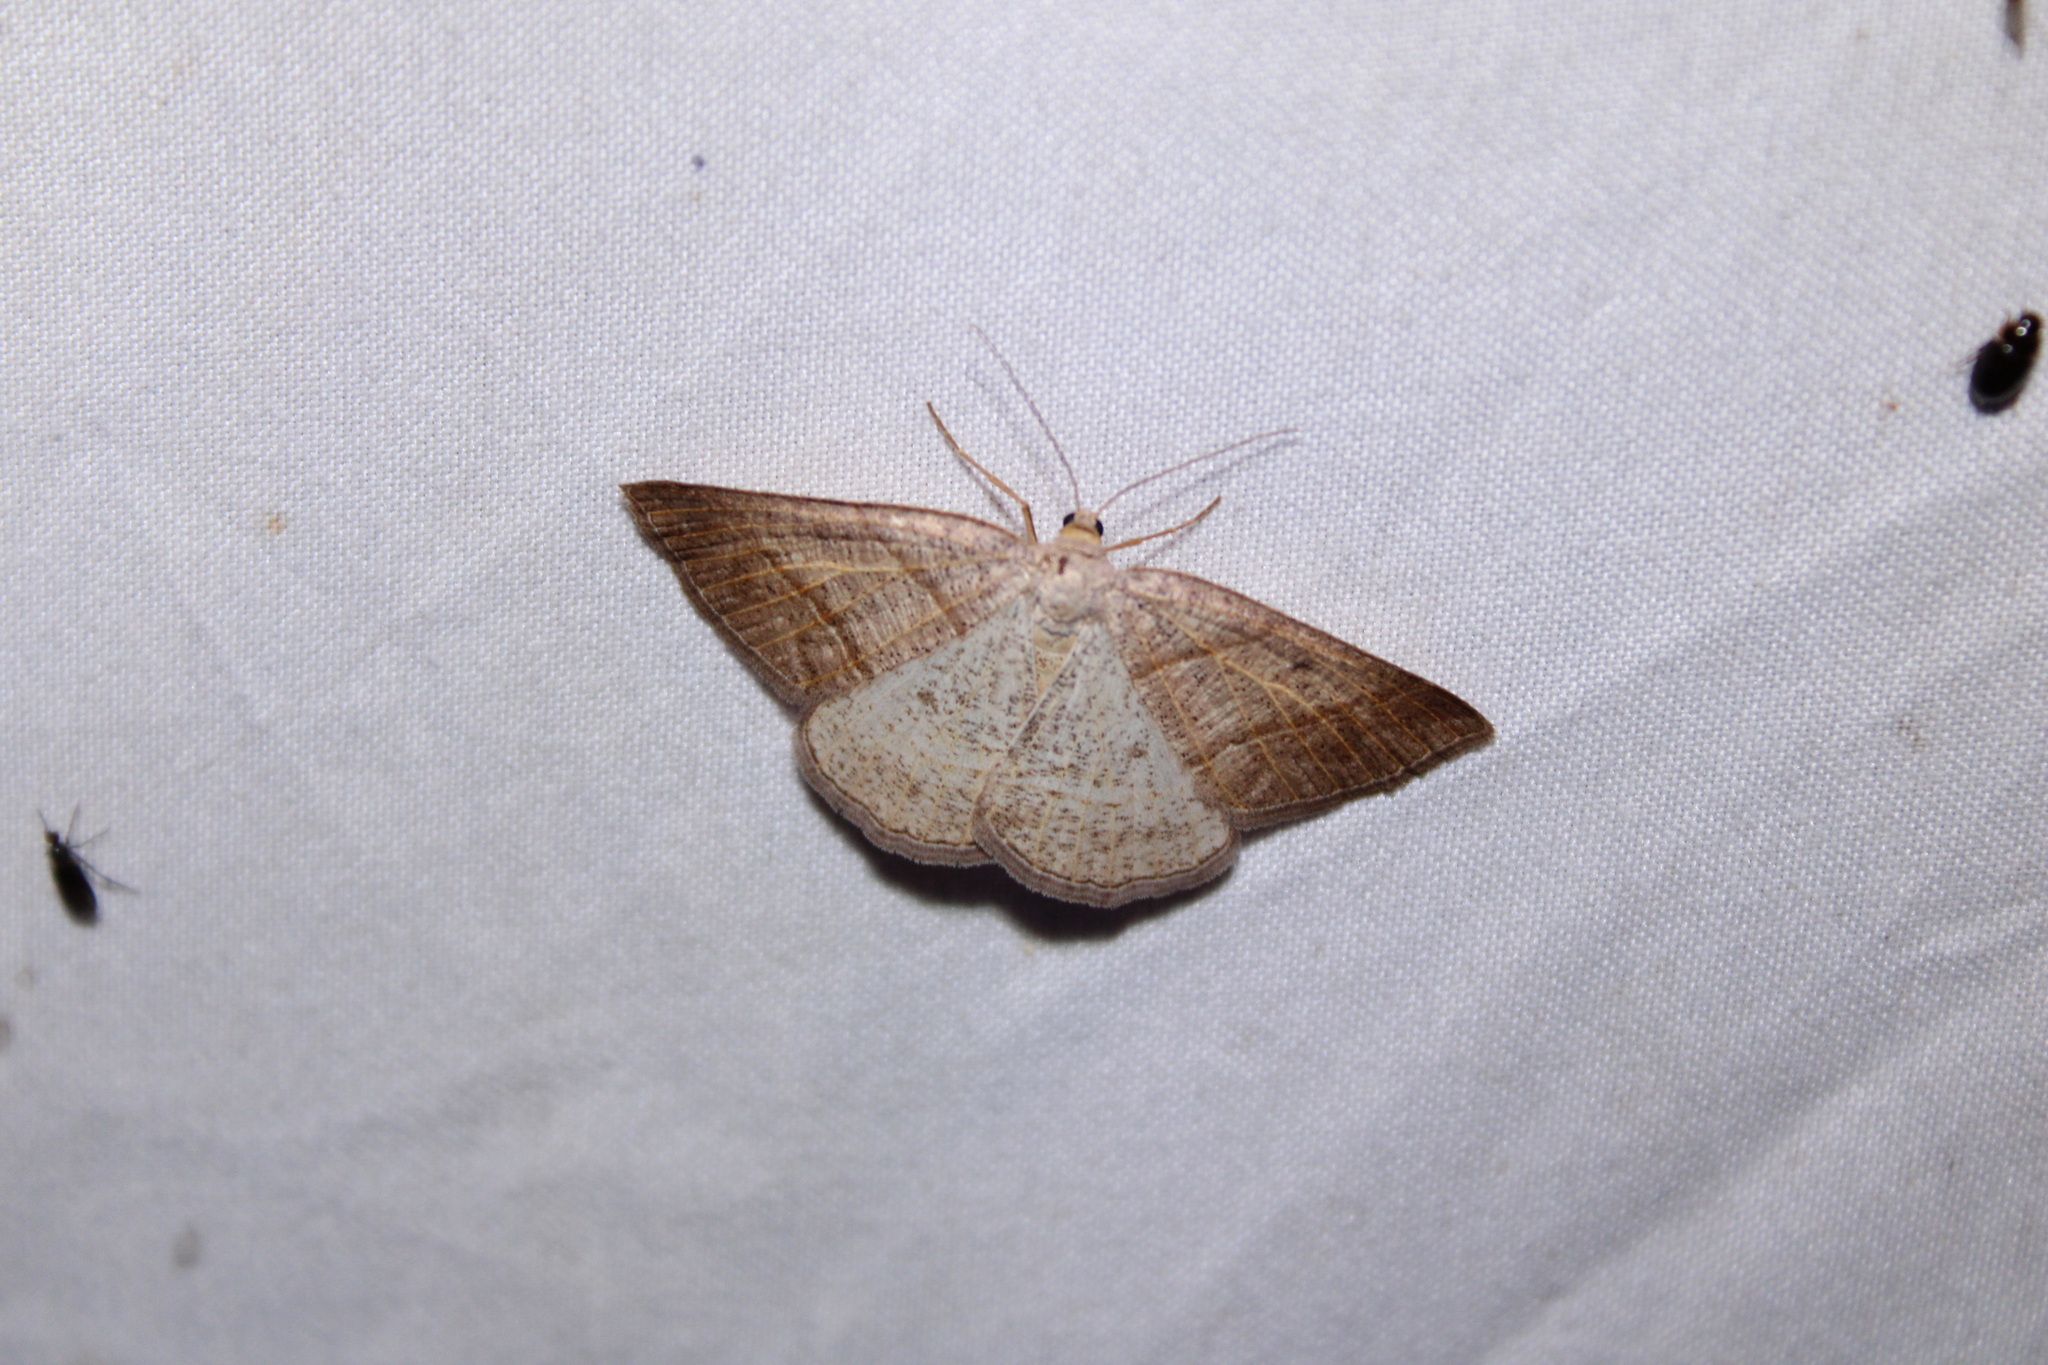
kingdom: Animalia
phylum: Arthropoda
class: Insecta
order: Lepidoptera
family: Pterophoridae
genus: Pterophorus
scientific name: Pterophorus Petrophora subaequaria
